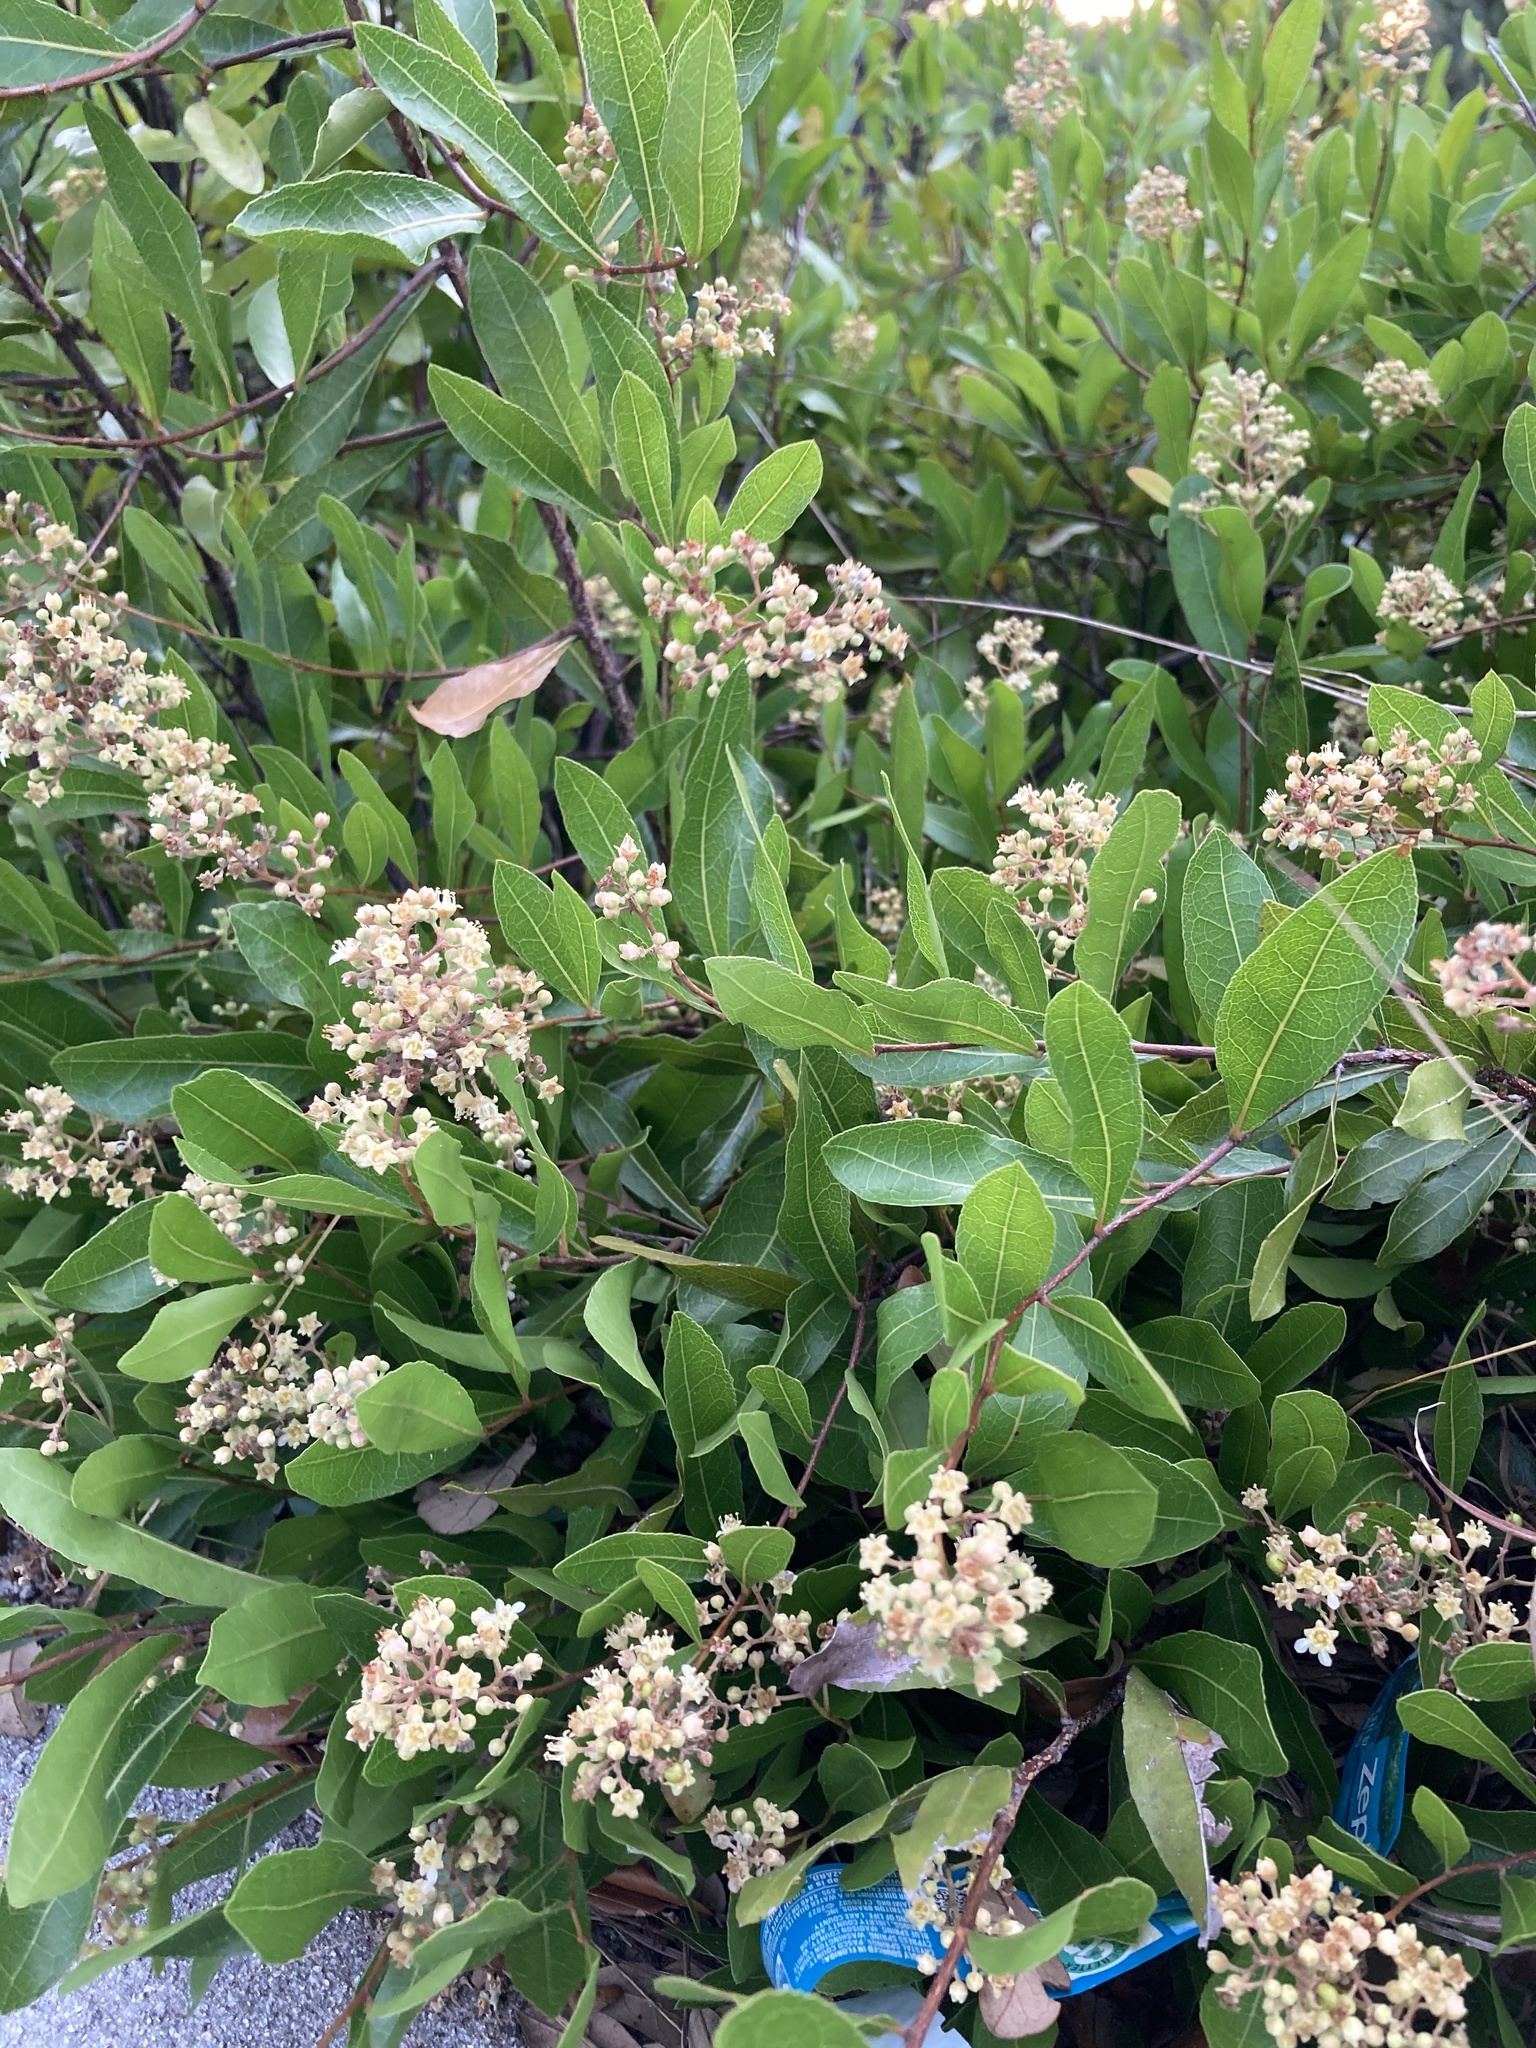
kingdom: Plantae
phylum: Tracheophyta
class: Magnoliopsida
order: Malpighiales
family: Chrysobalanaceae
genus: Geobalanus
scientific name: Geobalanus oblongifolius
